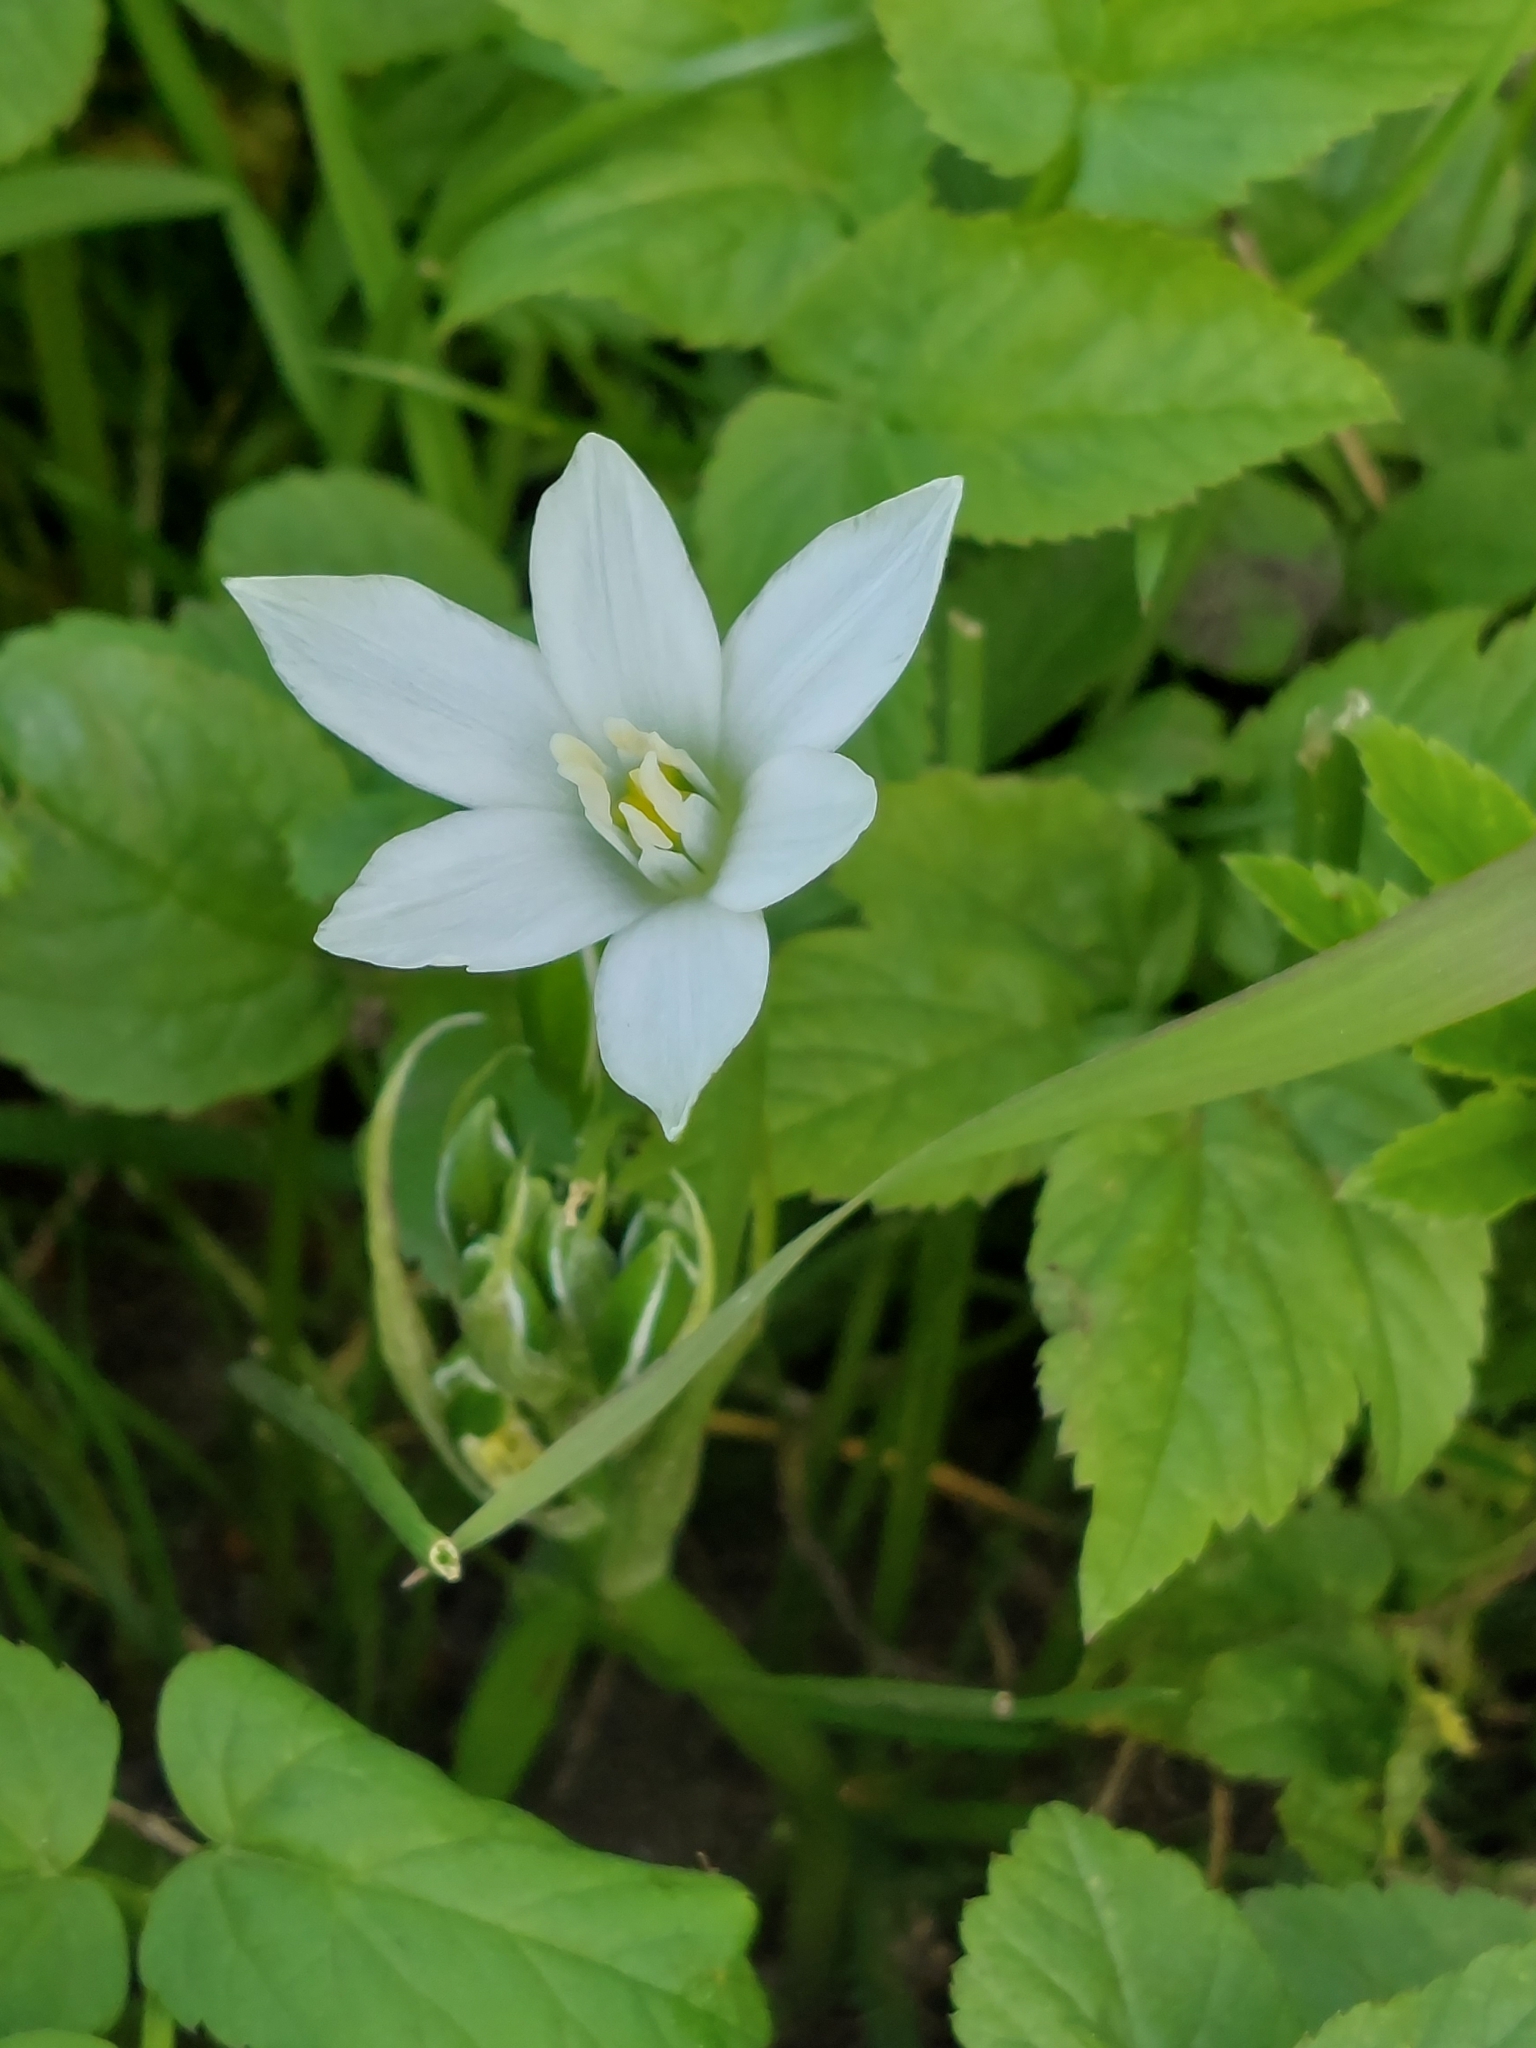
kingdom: Plantae
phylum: Tracheophyta
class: Liliopsida
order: Asparagales
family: Asparagaceae
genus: Ornithogalum
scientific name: Ornithogalum umbellatum
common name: Garden star-of-bethlehem
